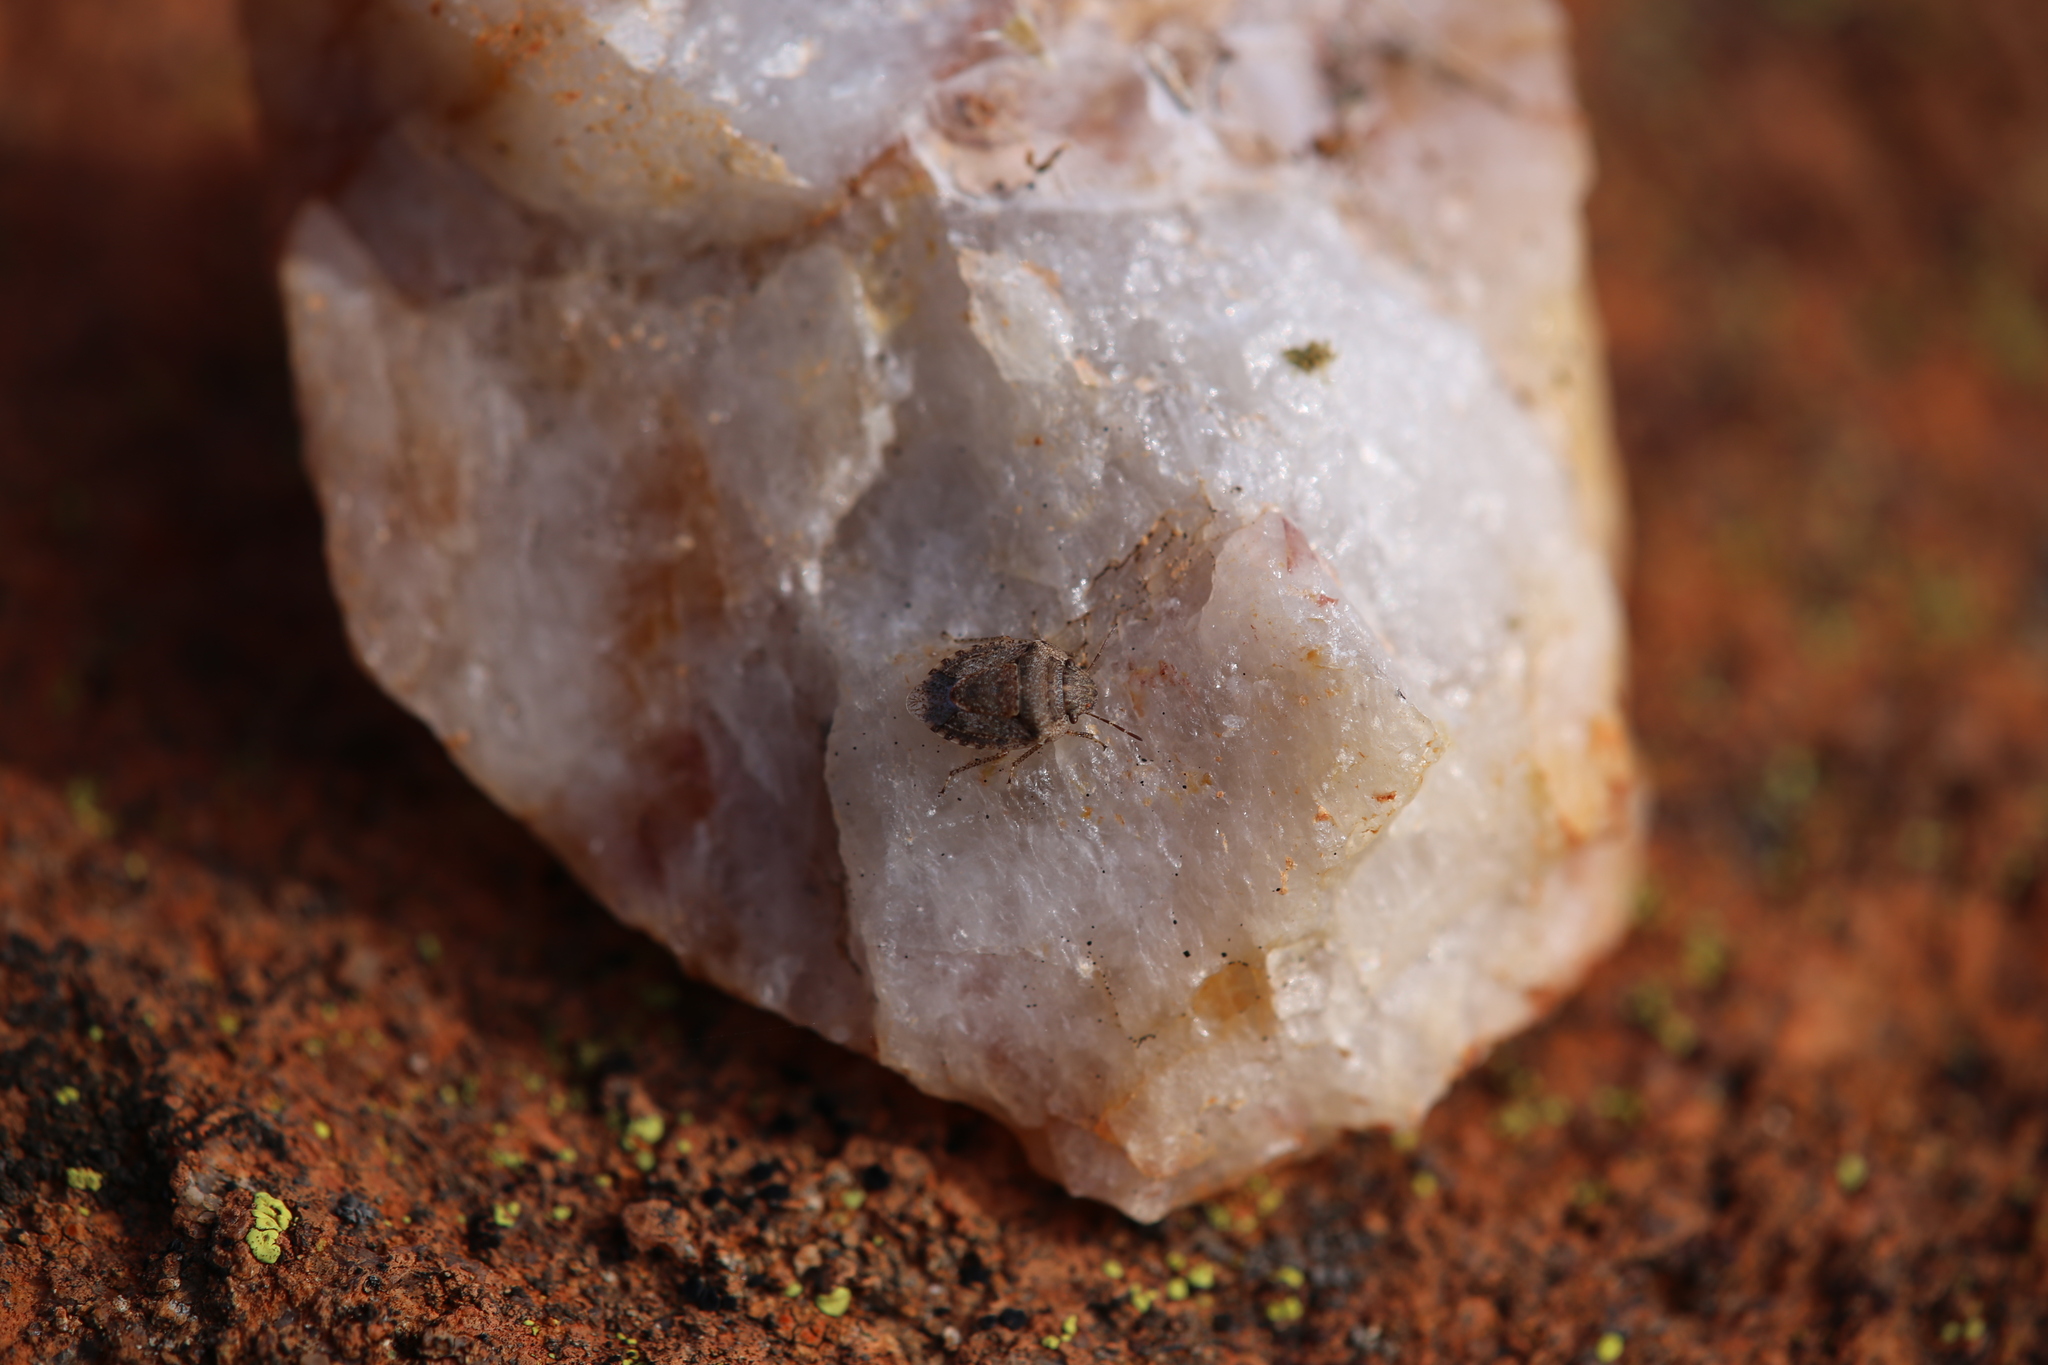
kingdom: Animalia
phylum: Arthropoda
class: Insecta
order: Hemiptera
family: Pentatomidae
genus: Kapunda
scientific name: Kapunda traughtoni
